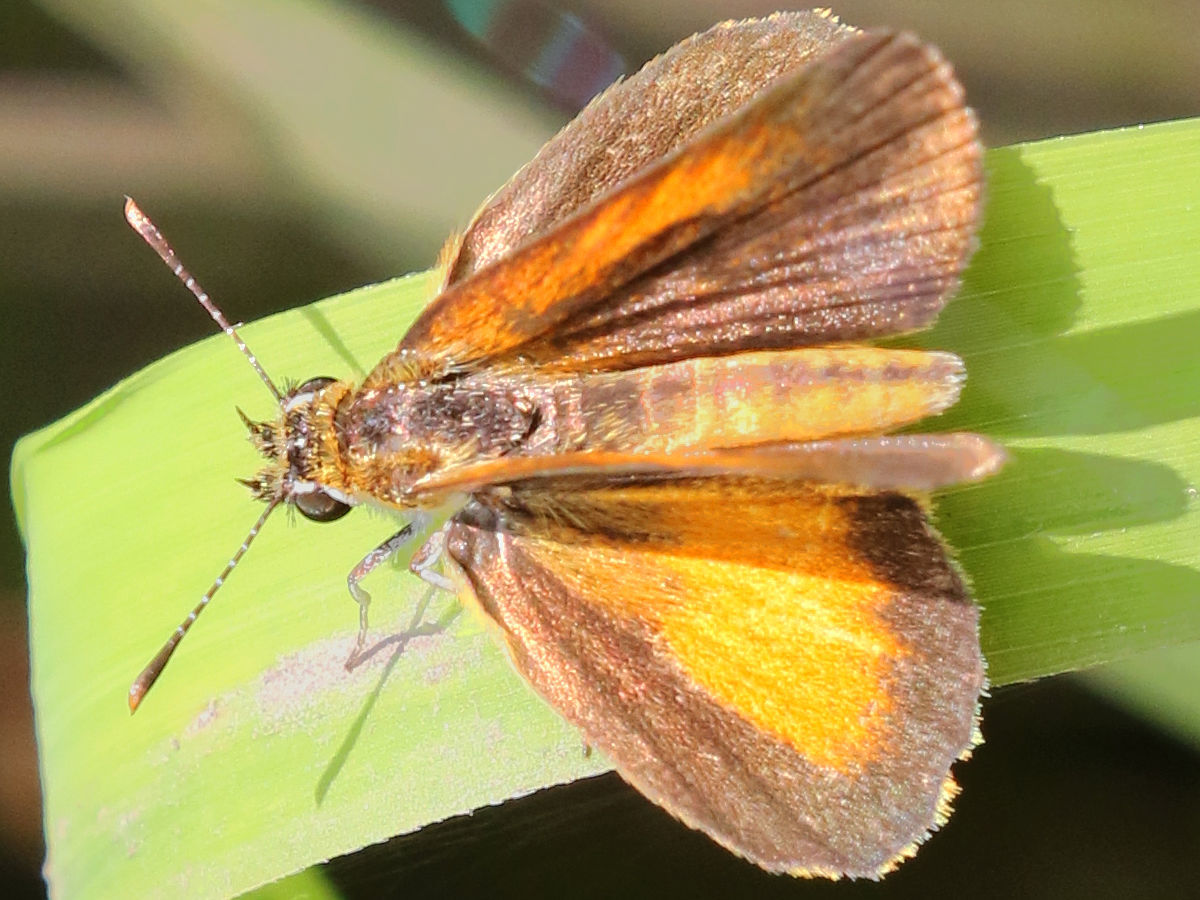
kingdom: Animalia
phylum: Arthropoda
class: Insecta
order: Lepidoptera
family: Hesperiidae
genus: Ancyloxypha
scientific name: Ancyloxypha numitor
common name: Least skipper
